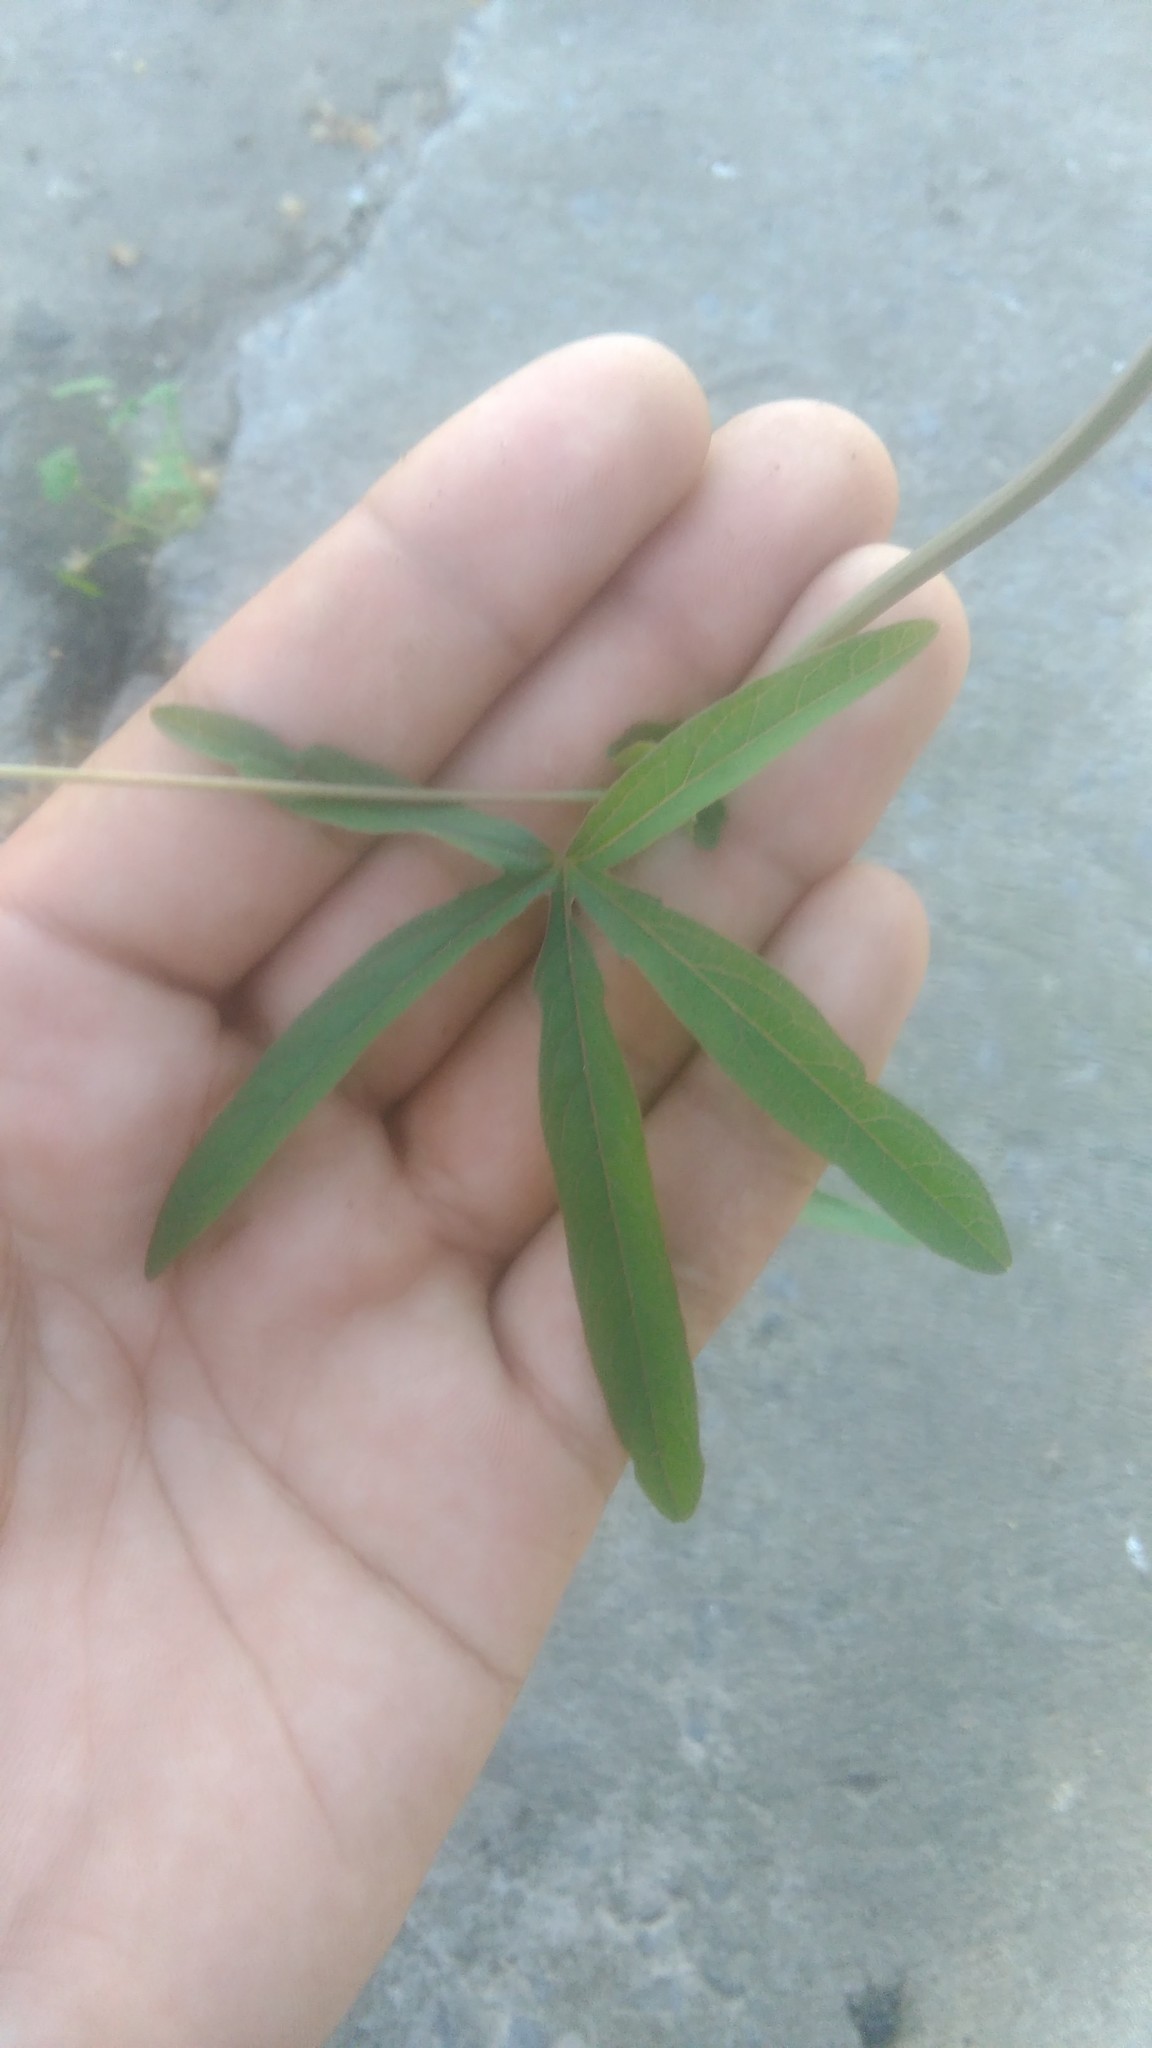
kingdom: Plantae
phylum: Tracheophyta
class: Magnoliopsida
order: Malpighiales
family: Passifloraceae
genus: Passiflora
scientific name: Passiflora caerulea
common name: Blue passionflower
